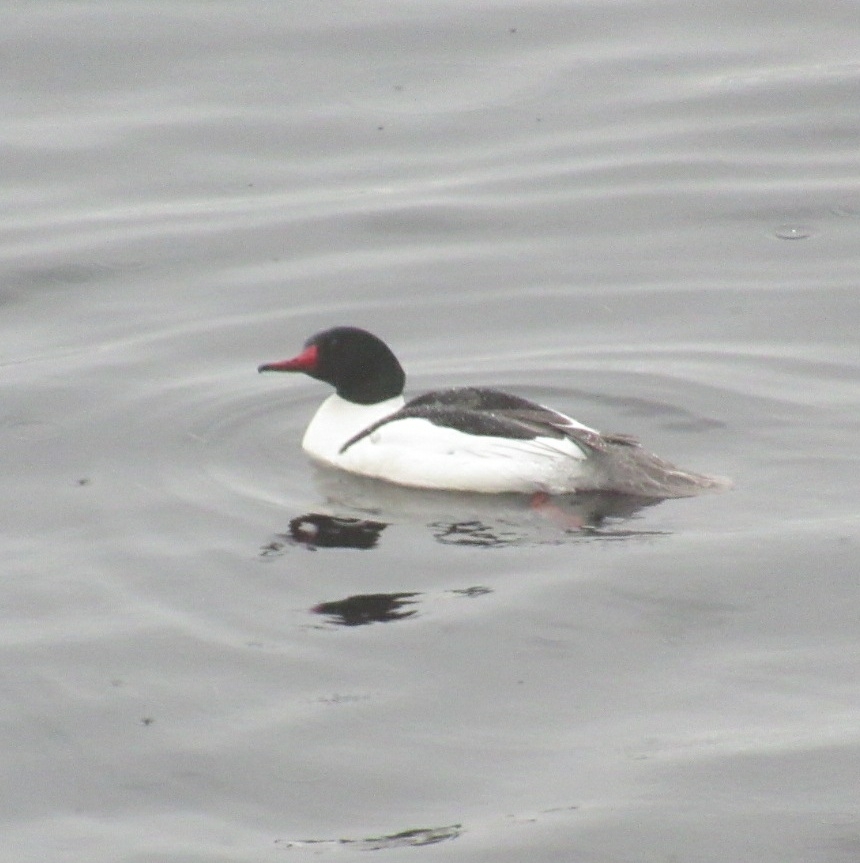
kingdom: Animalia
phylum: Chordata
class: Aves
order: Anseriformes
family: Anatidae
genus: Mergus
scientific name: Mergus merganser
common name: Common merganser
